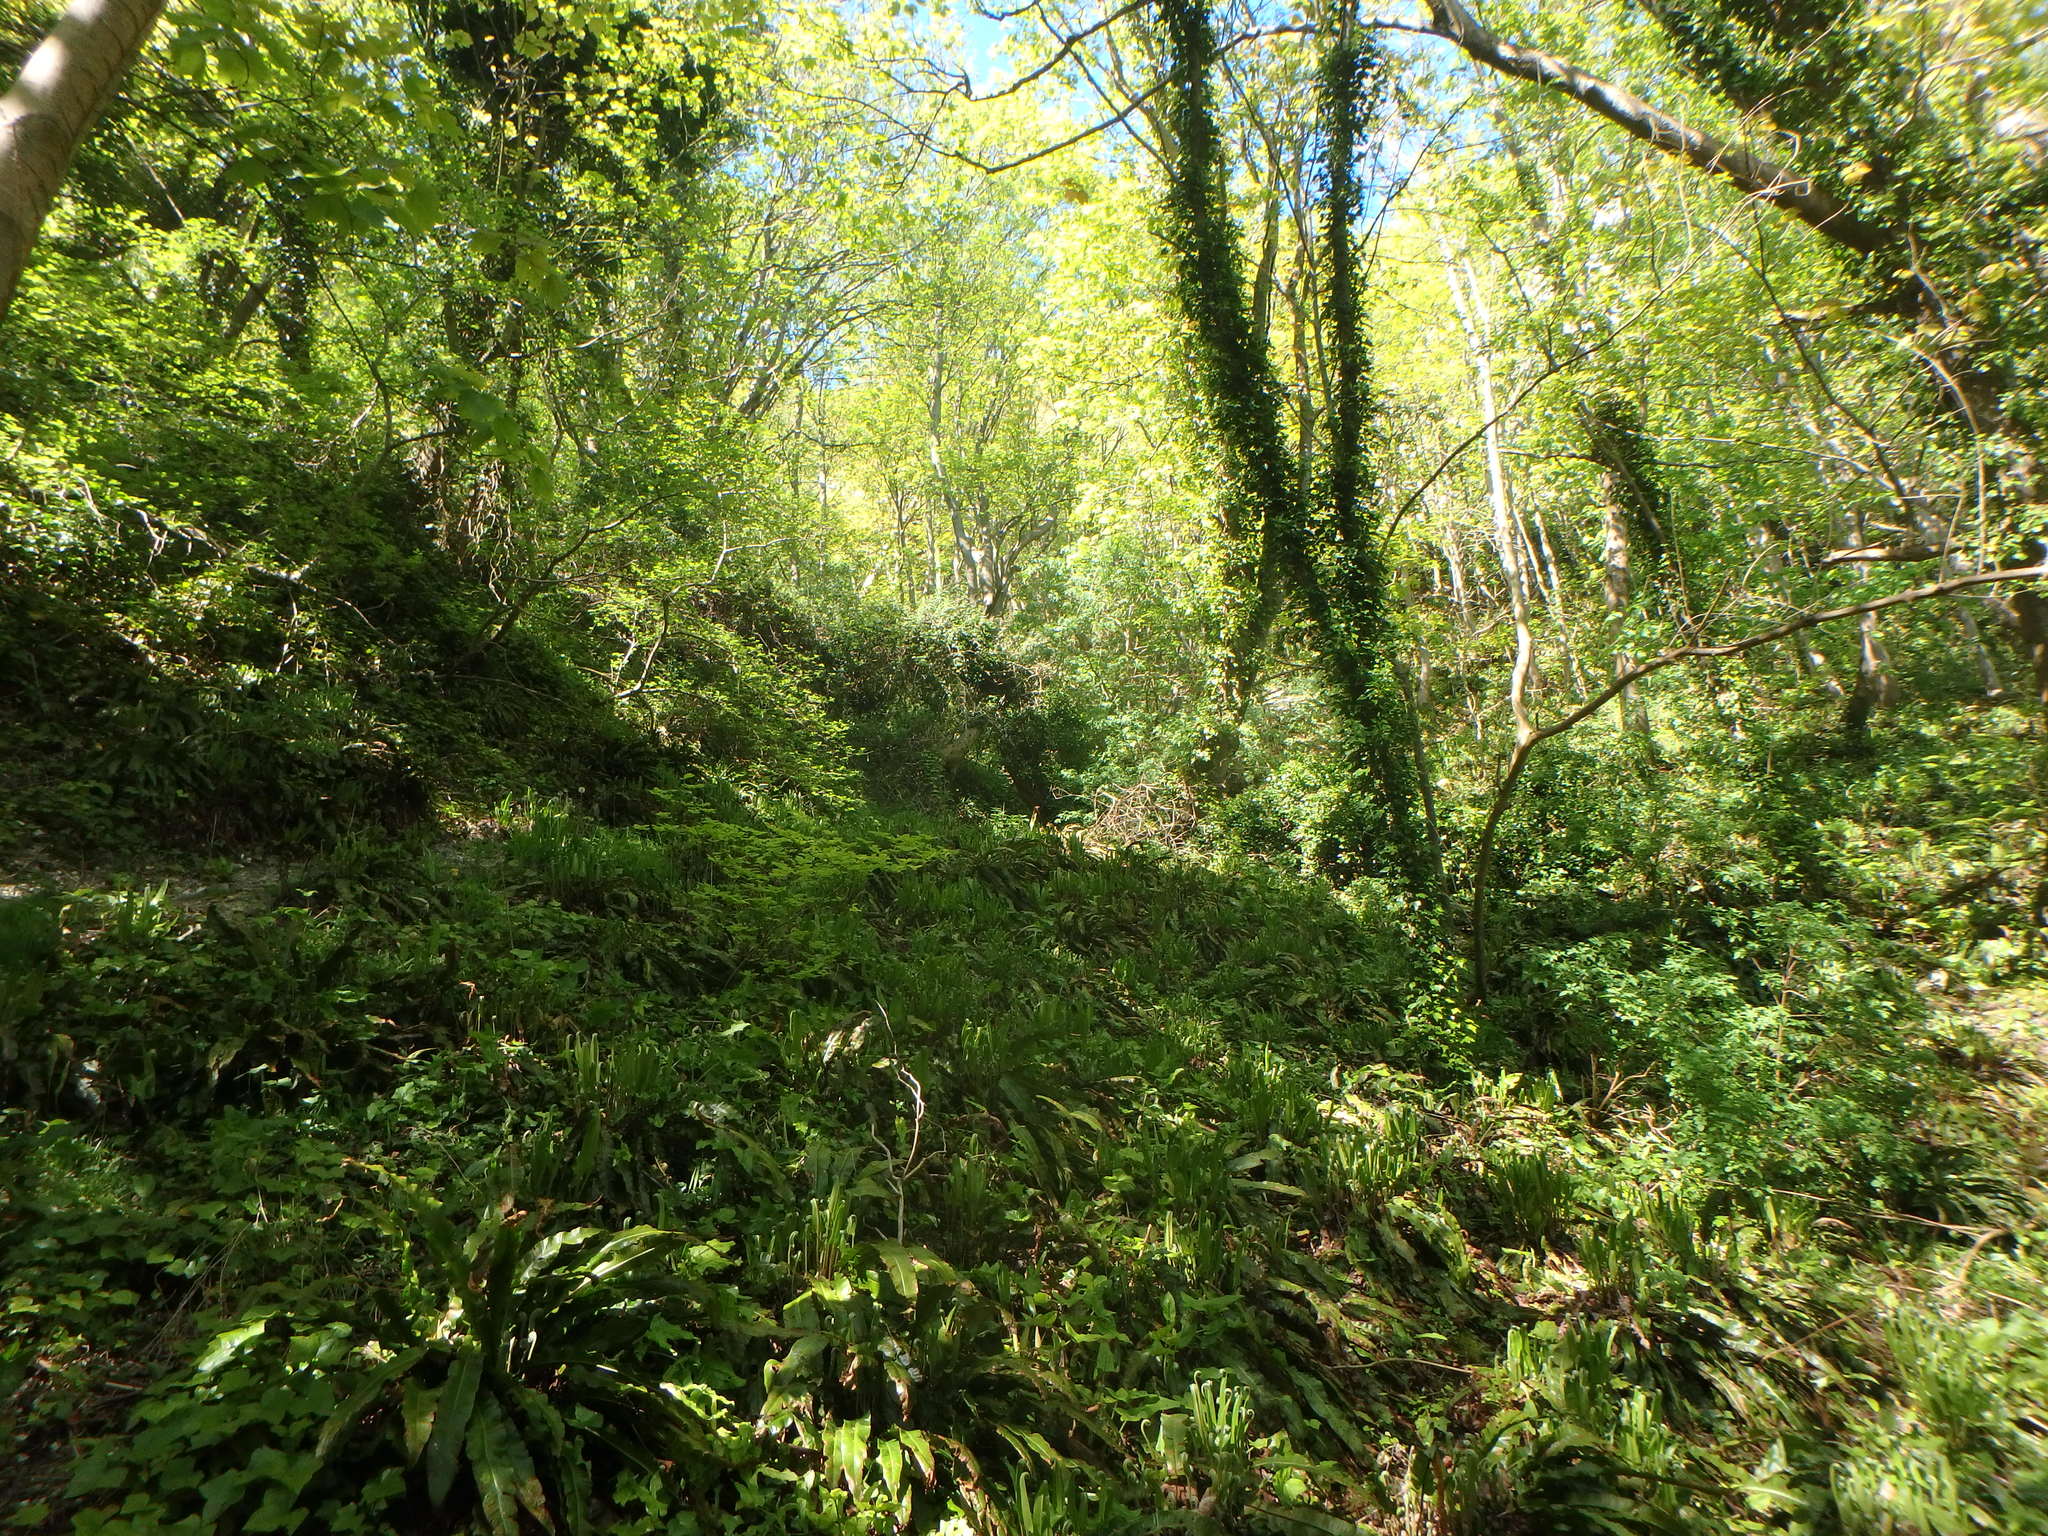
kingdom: Plantae
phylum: Tracheophyta
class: Polypodiopsida
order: Polypodiales
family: Aspleniaceae
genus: Asplenium
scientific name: Asplenium scolopendrium
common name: Hart's-tongue fern
